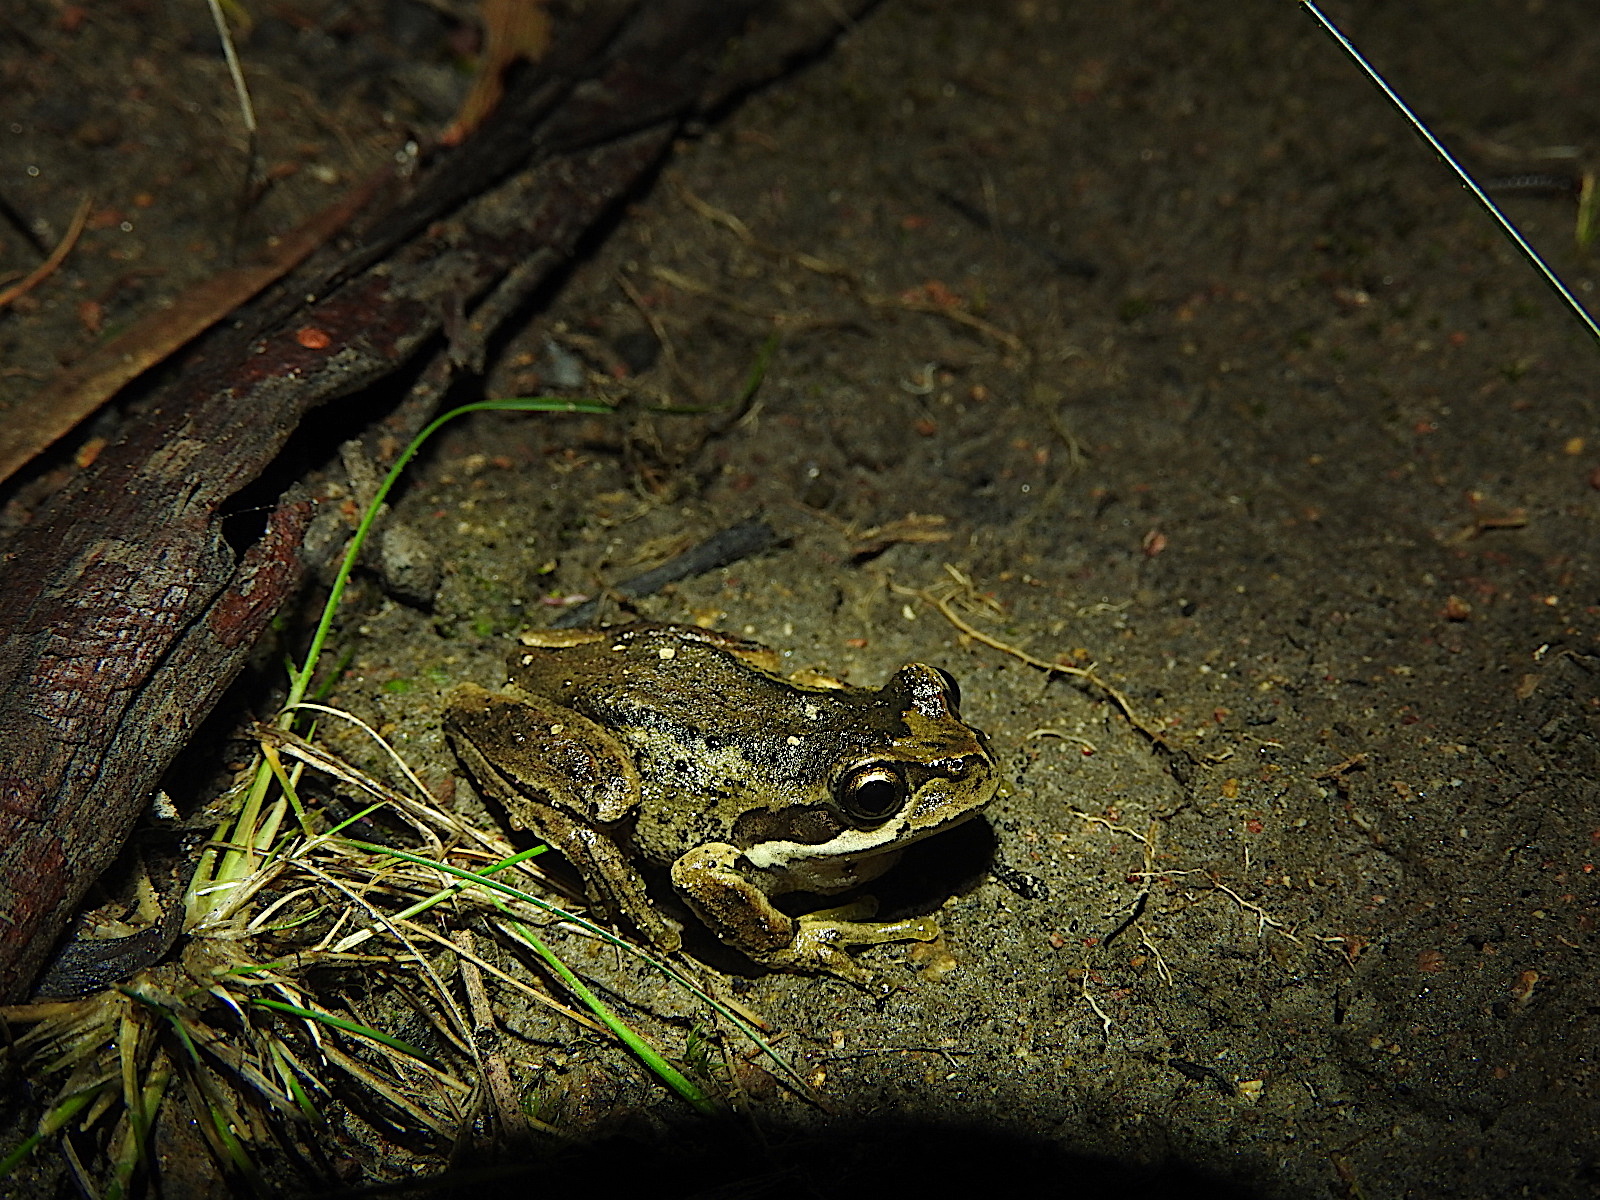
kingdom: Animalia
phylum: Chordata
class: Amphibia
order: Anura
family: Pelodryadidae
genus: Litoria
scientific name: Litoria ewingii
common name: Southern brown tree frog
